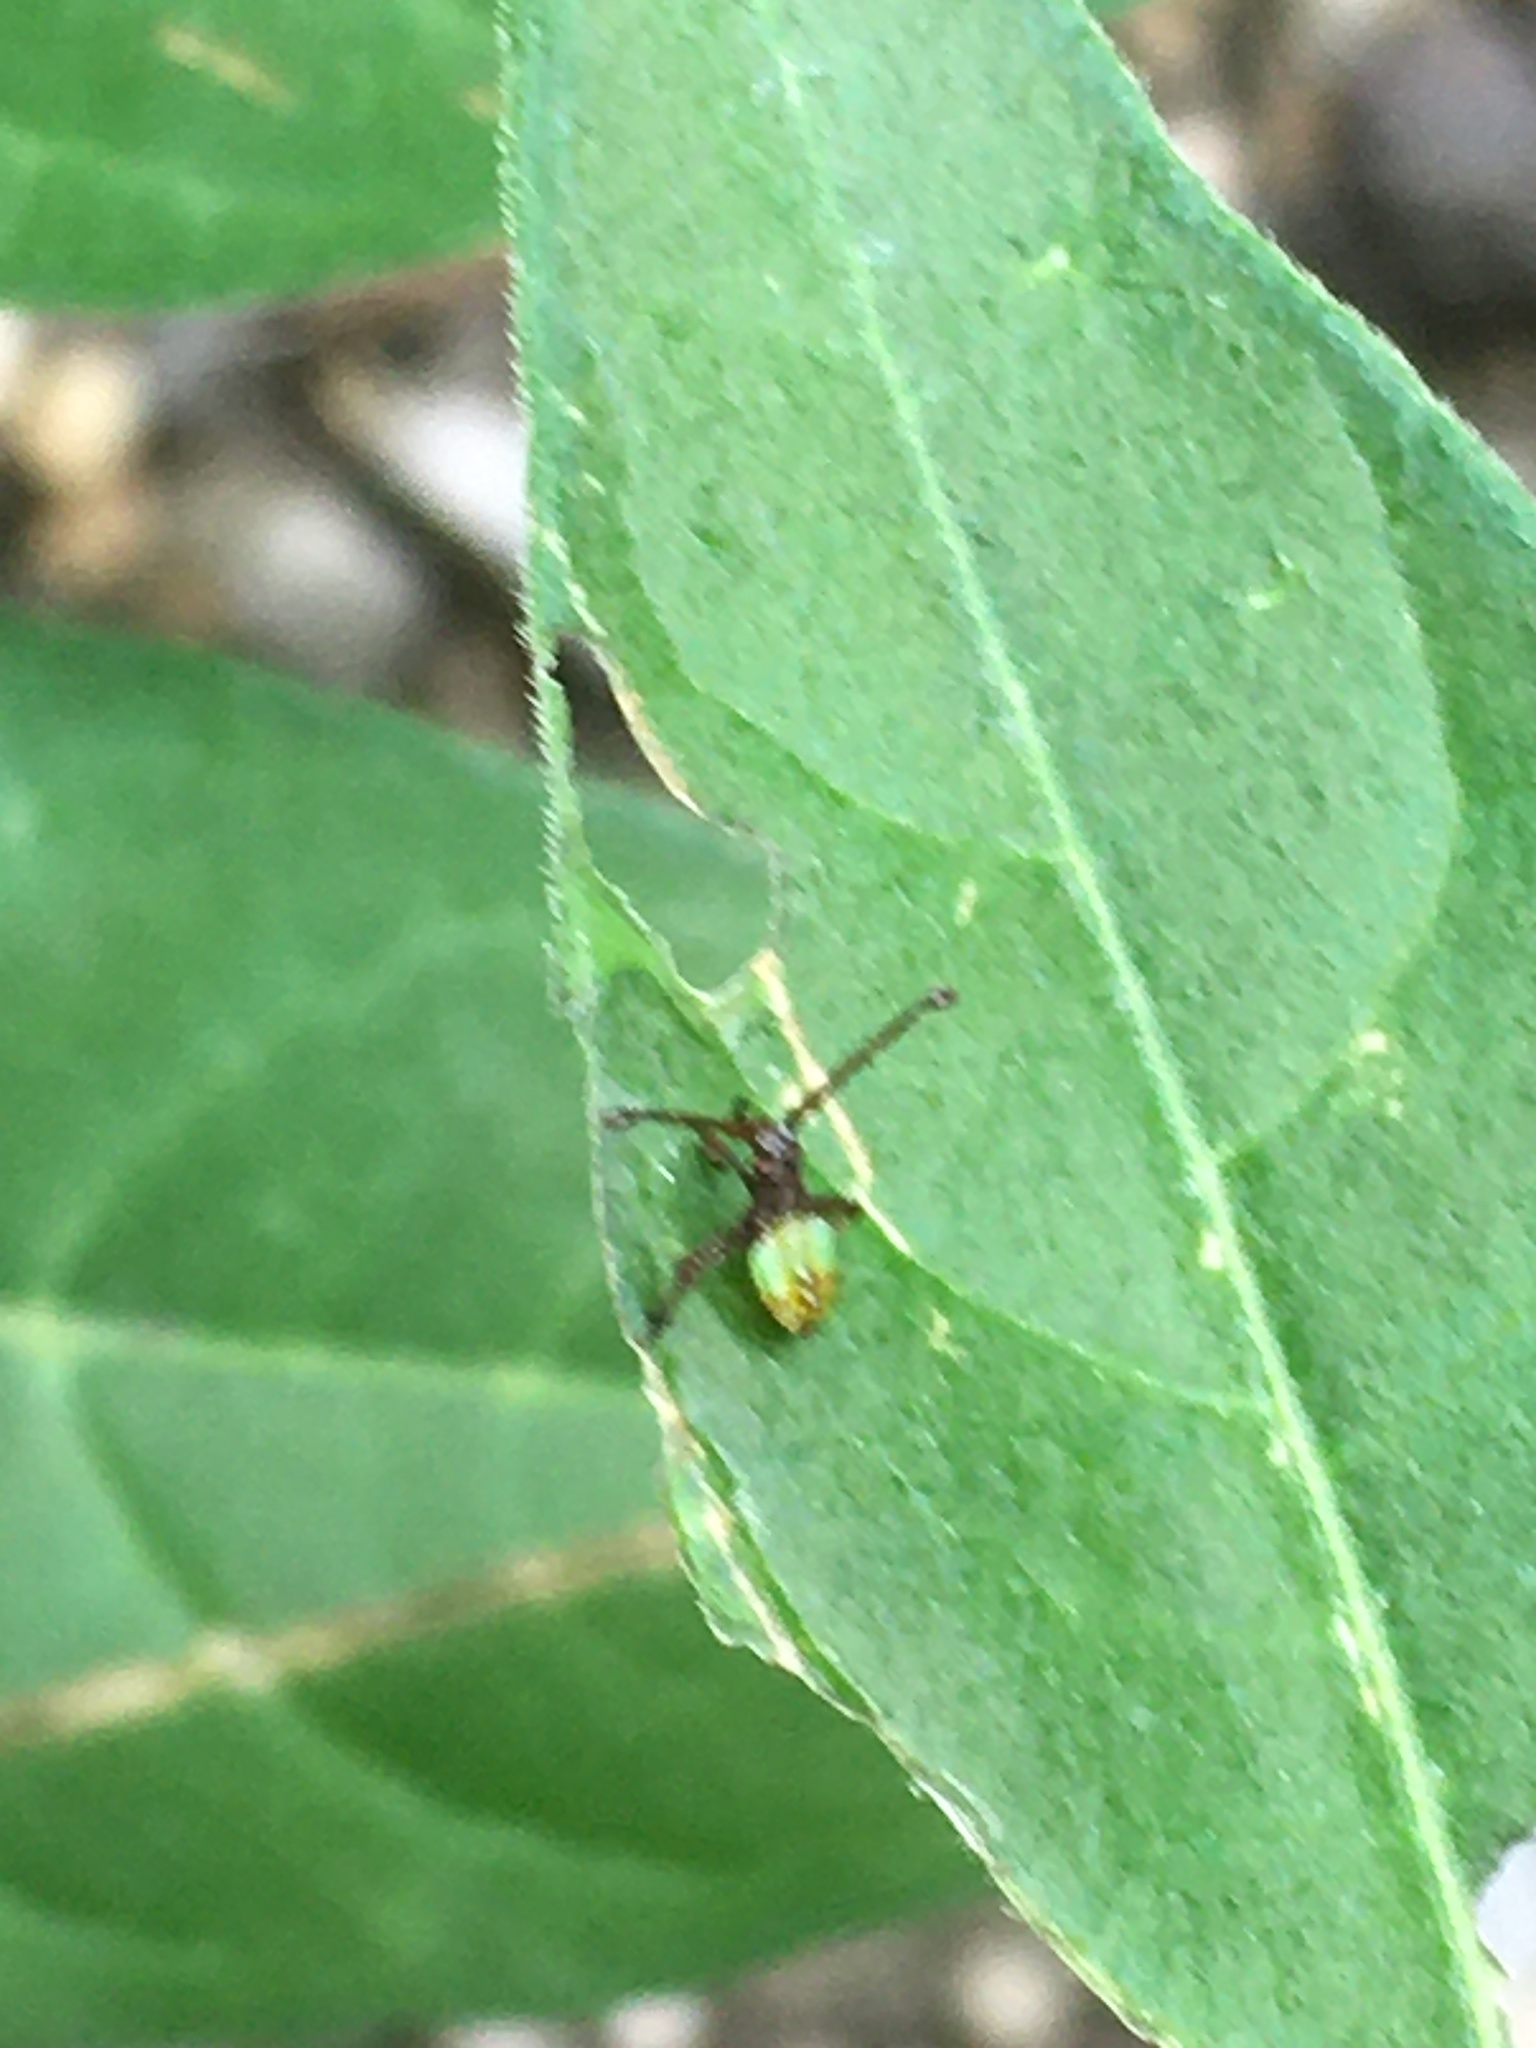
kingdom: Animalia
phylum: Arthropoda
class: Insecta
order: Hemiptera
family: Coreidae
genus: Gonocerus
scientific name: Gonocerus acuteangulatus
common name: Box bug
